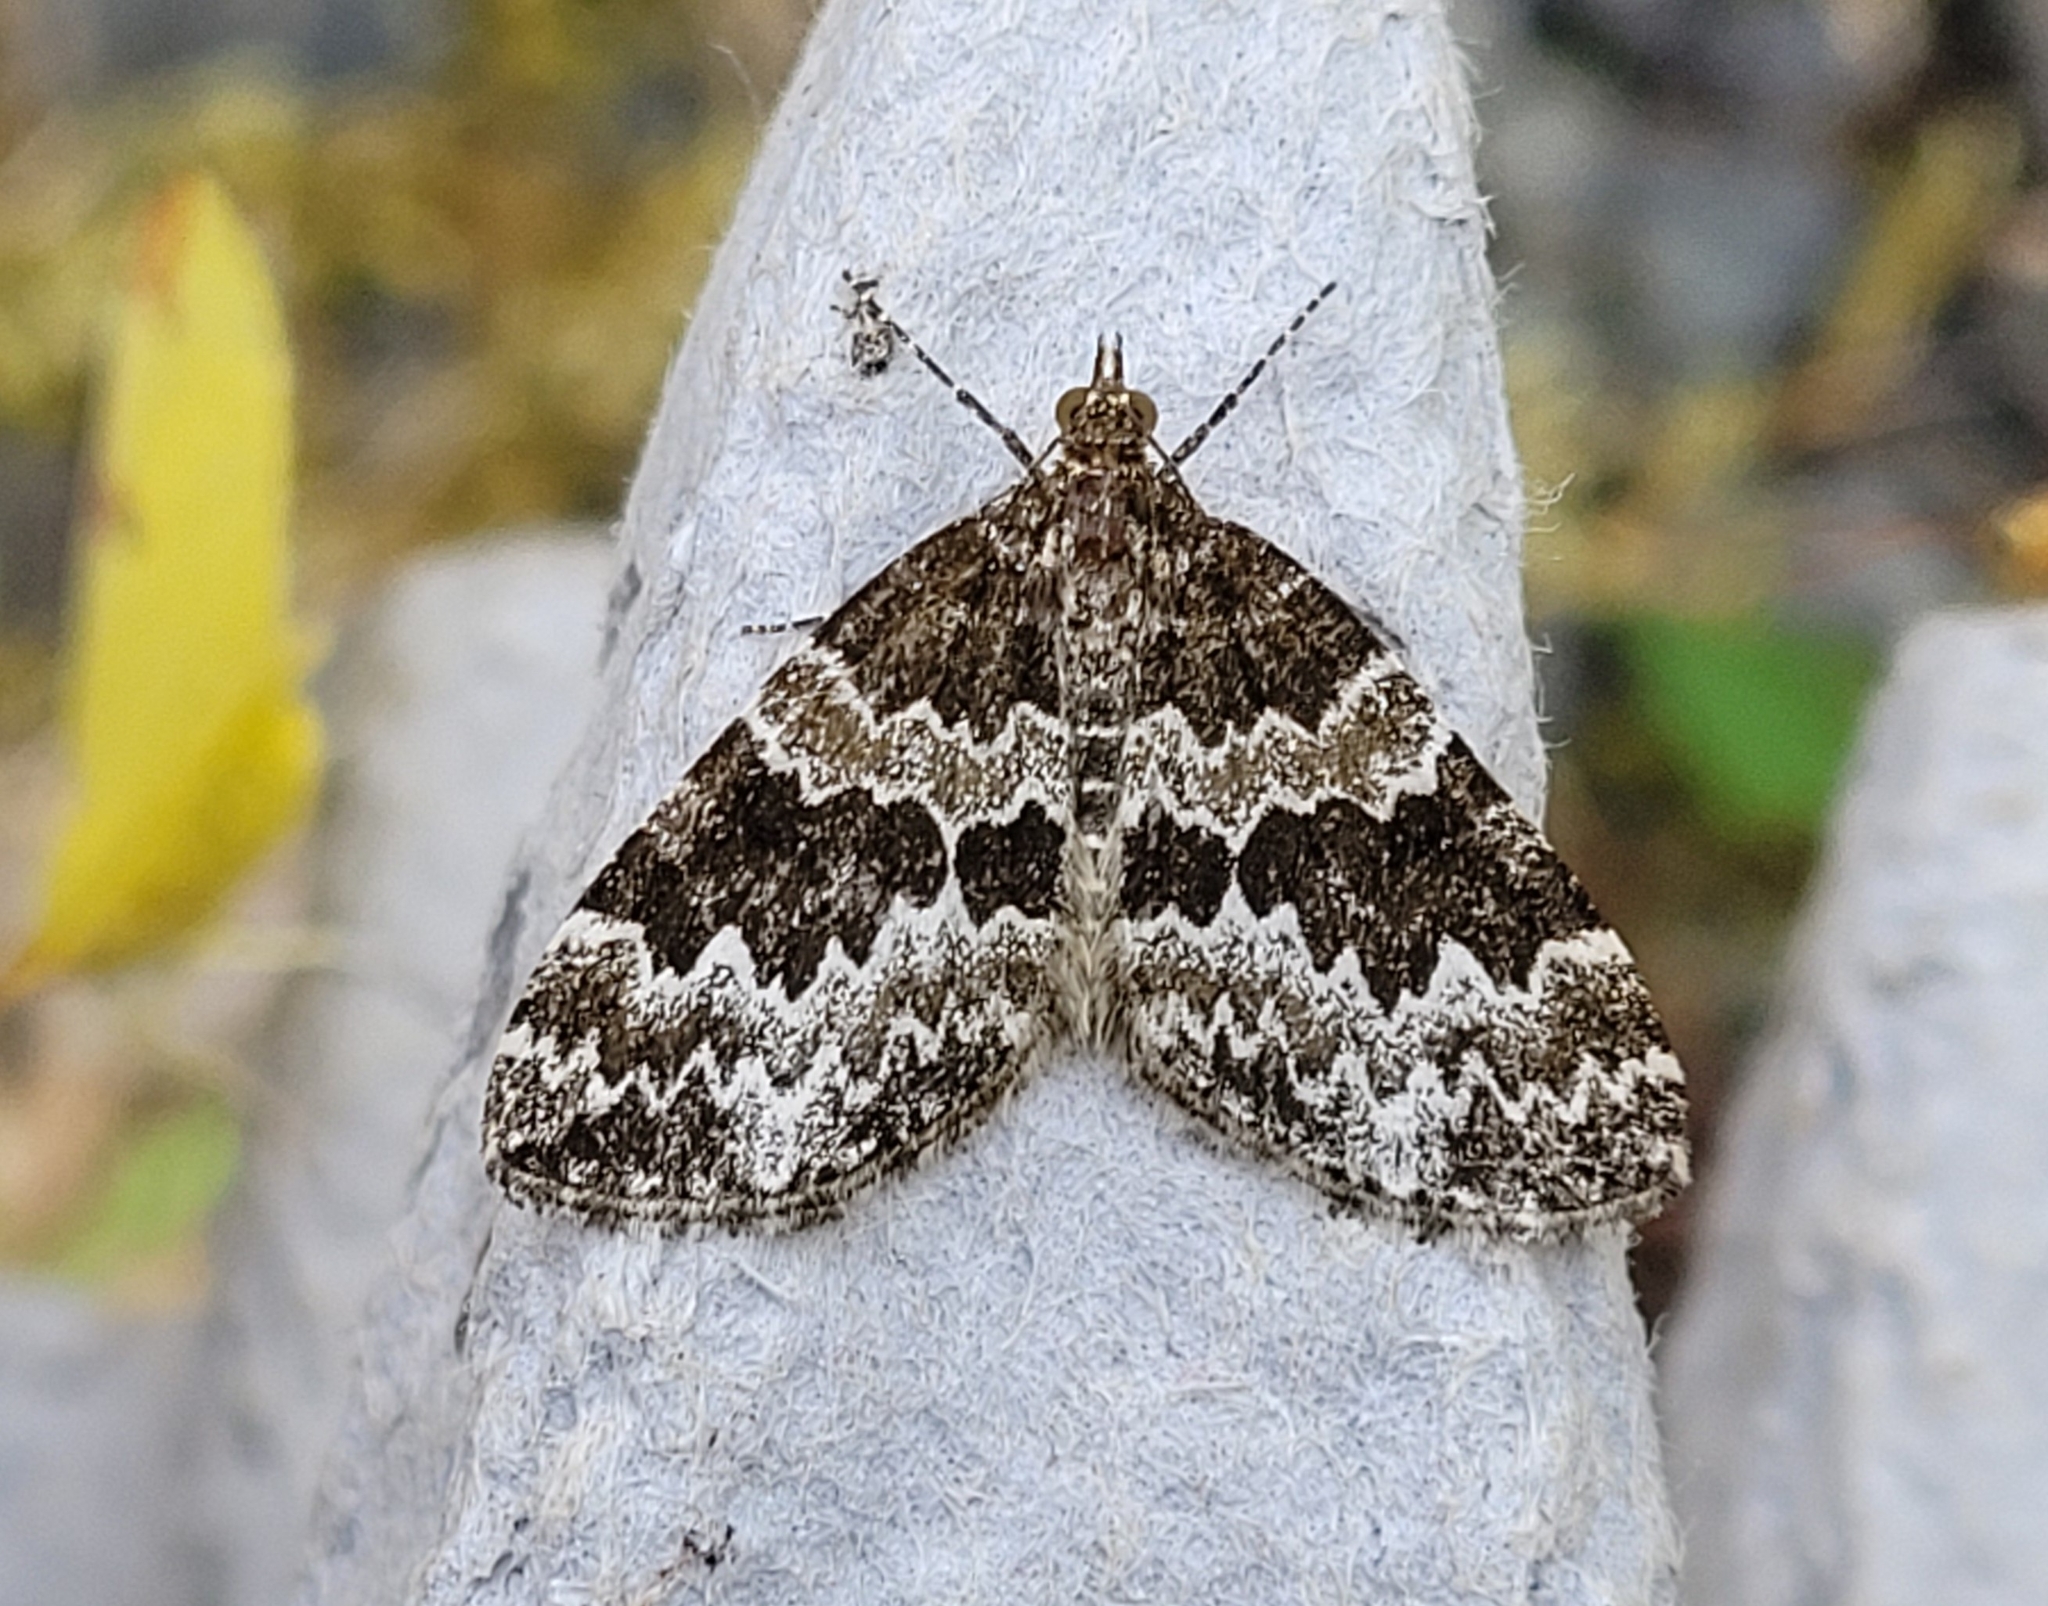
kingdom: Animalia
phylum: Arthropoda
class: Insecta
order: Lepidoptera
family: Geometridae
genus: Electrophaes
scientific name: Electrophaes corylata
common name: Broken-barred carpet
